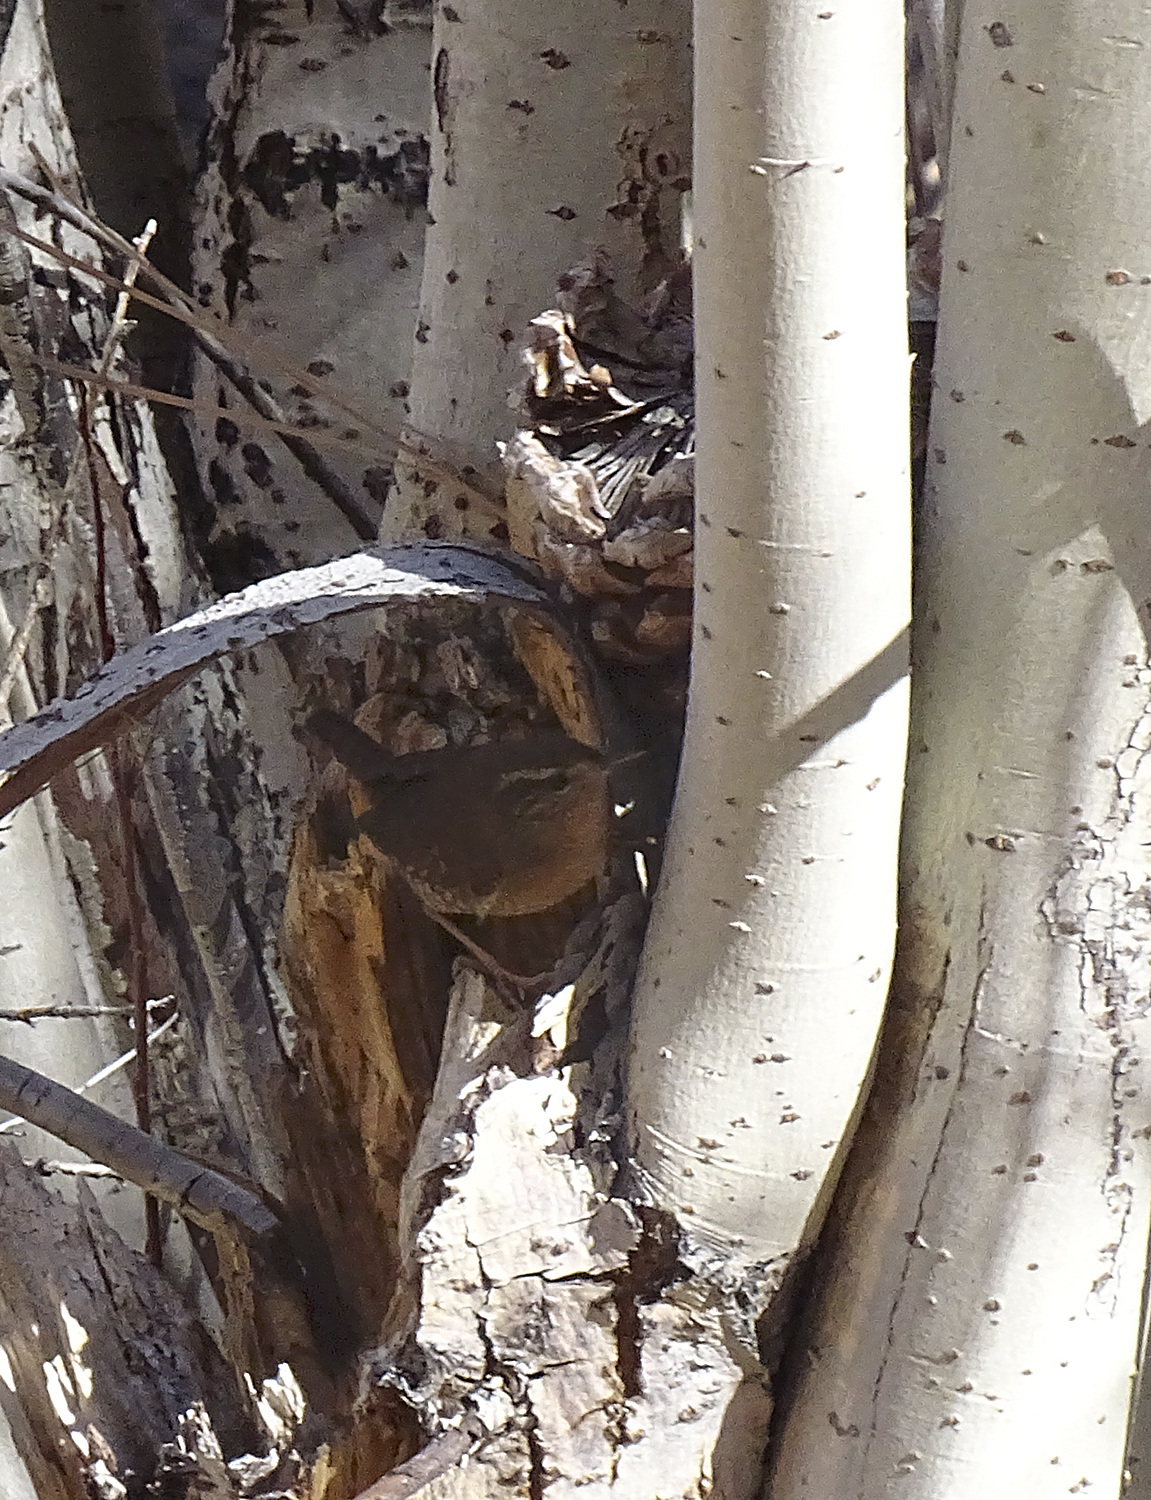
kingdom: Animalia
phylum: Chordata
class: Aves
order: Passeriformes
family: Troglodytidae
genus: Troglodytes
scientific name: Troglodytes pacificus
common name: Pacific wren
